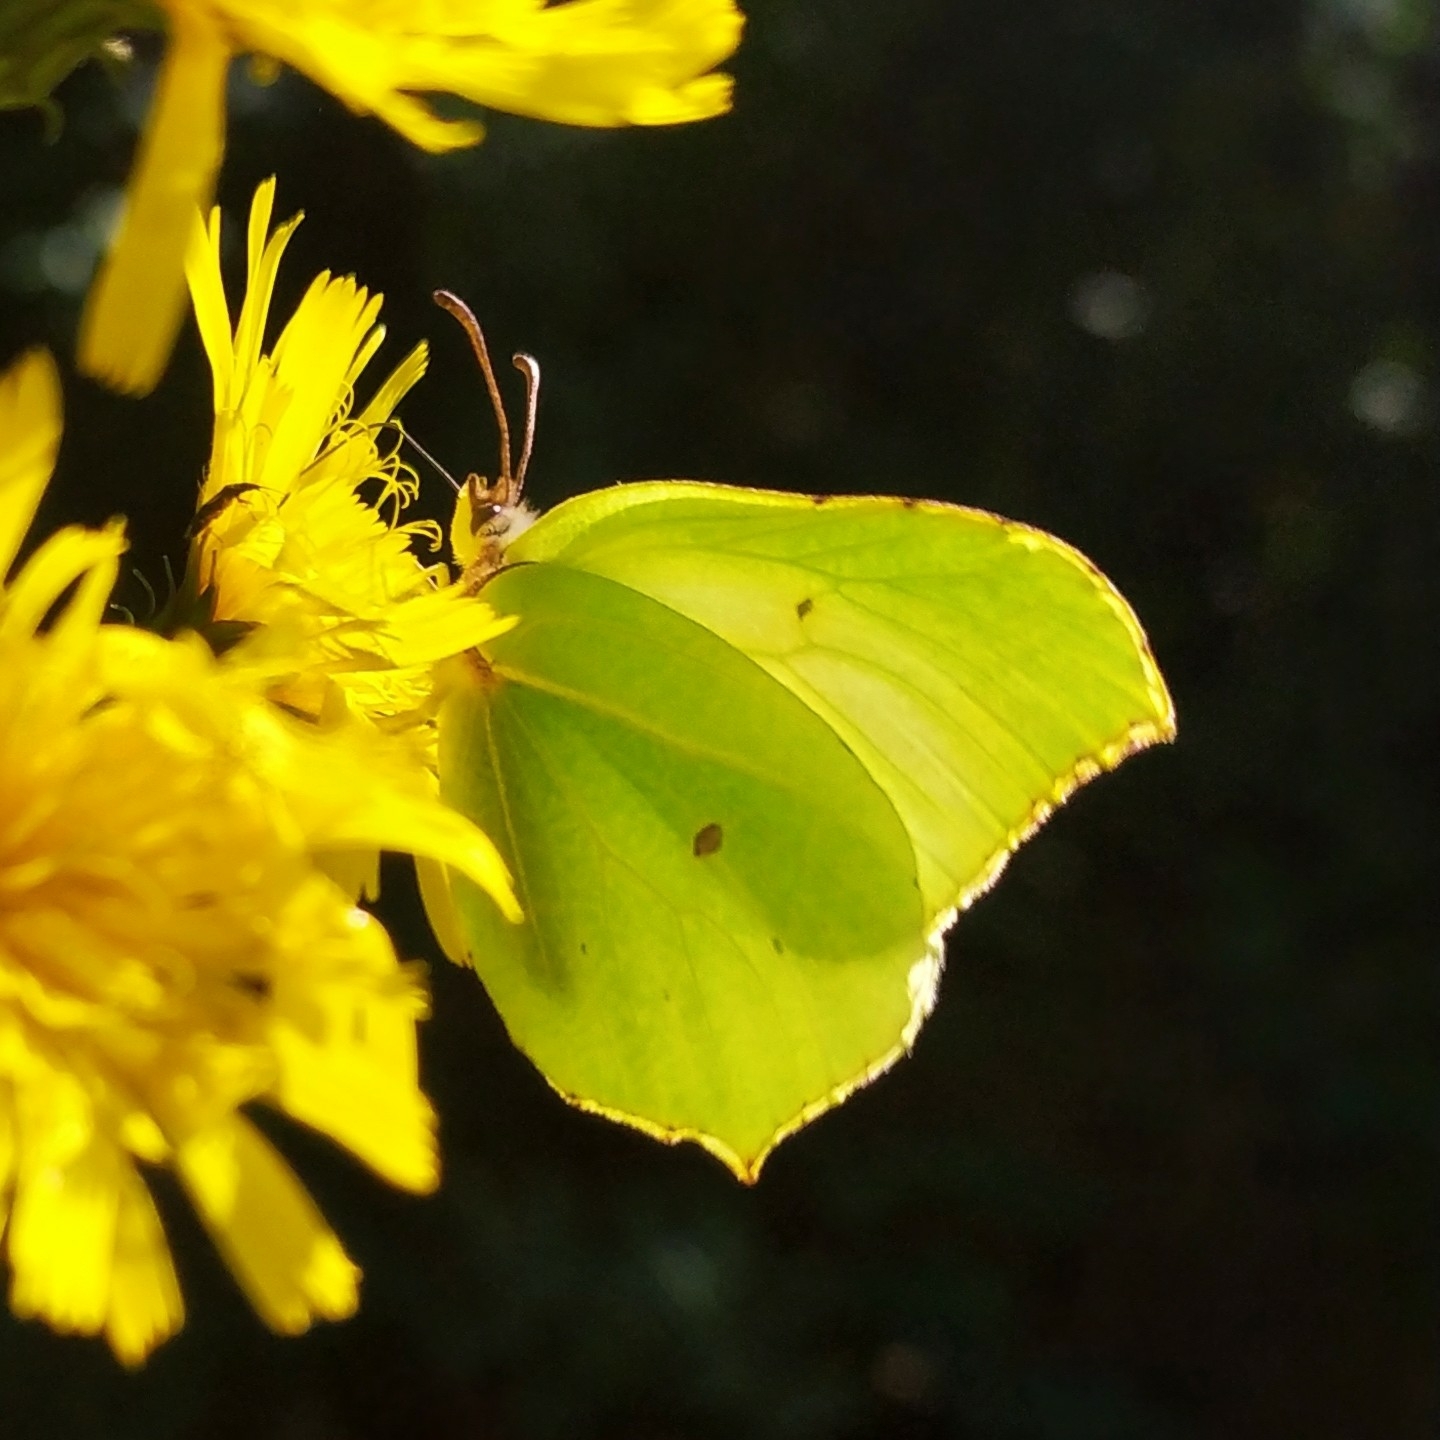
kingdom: Animalia
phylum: Arthropoda
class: Insecta
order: Lepidoptera
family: Pieridae
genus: Gonepteryx
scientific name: Gonepteryx rhamni
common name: Brimstone
